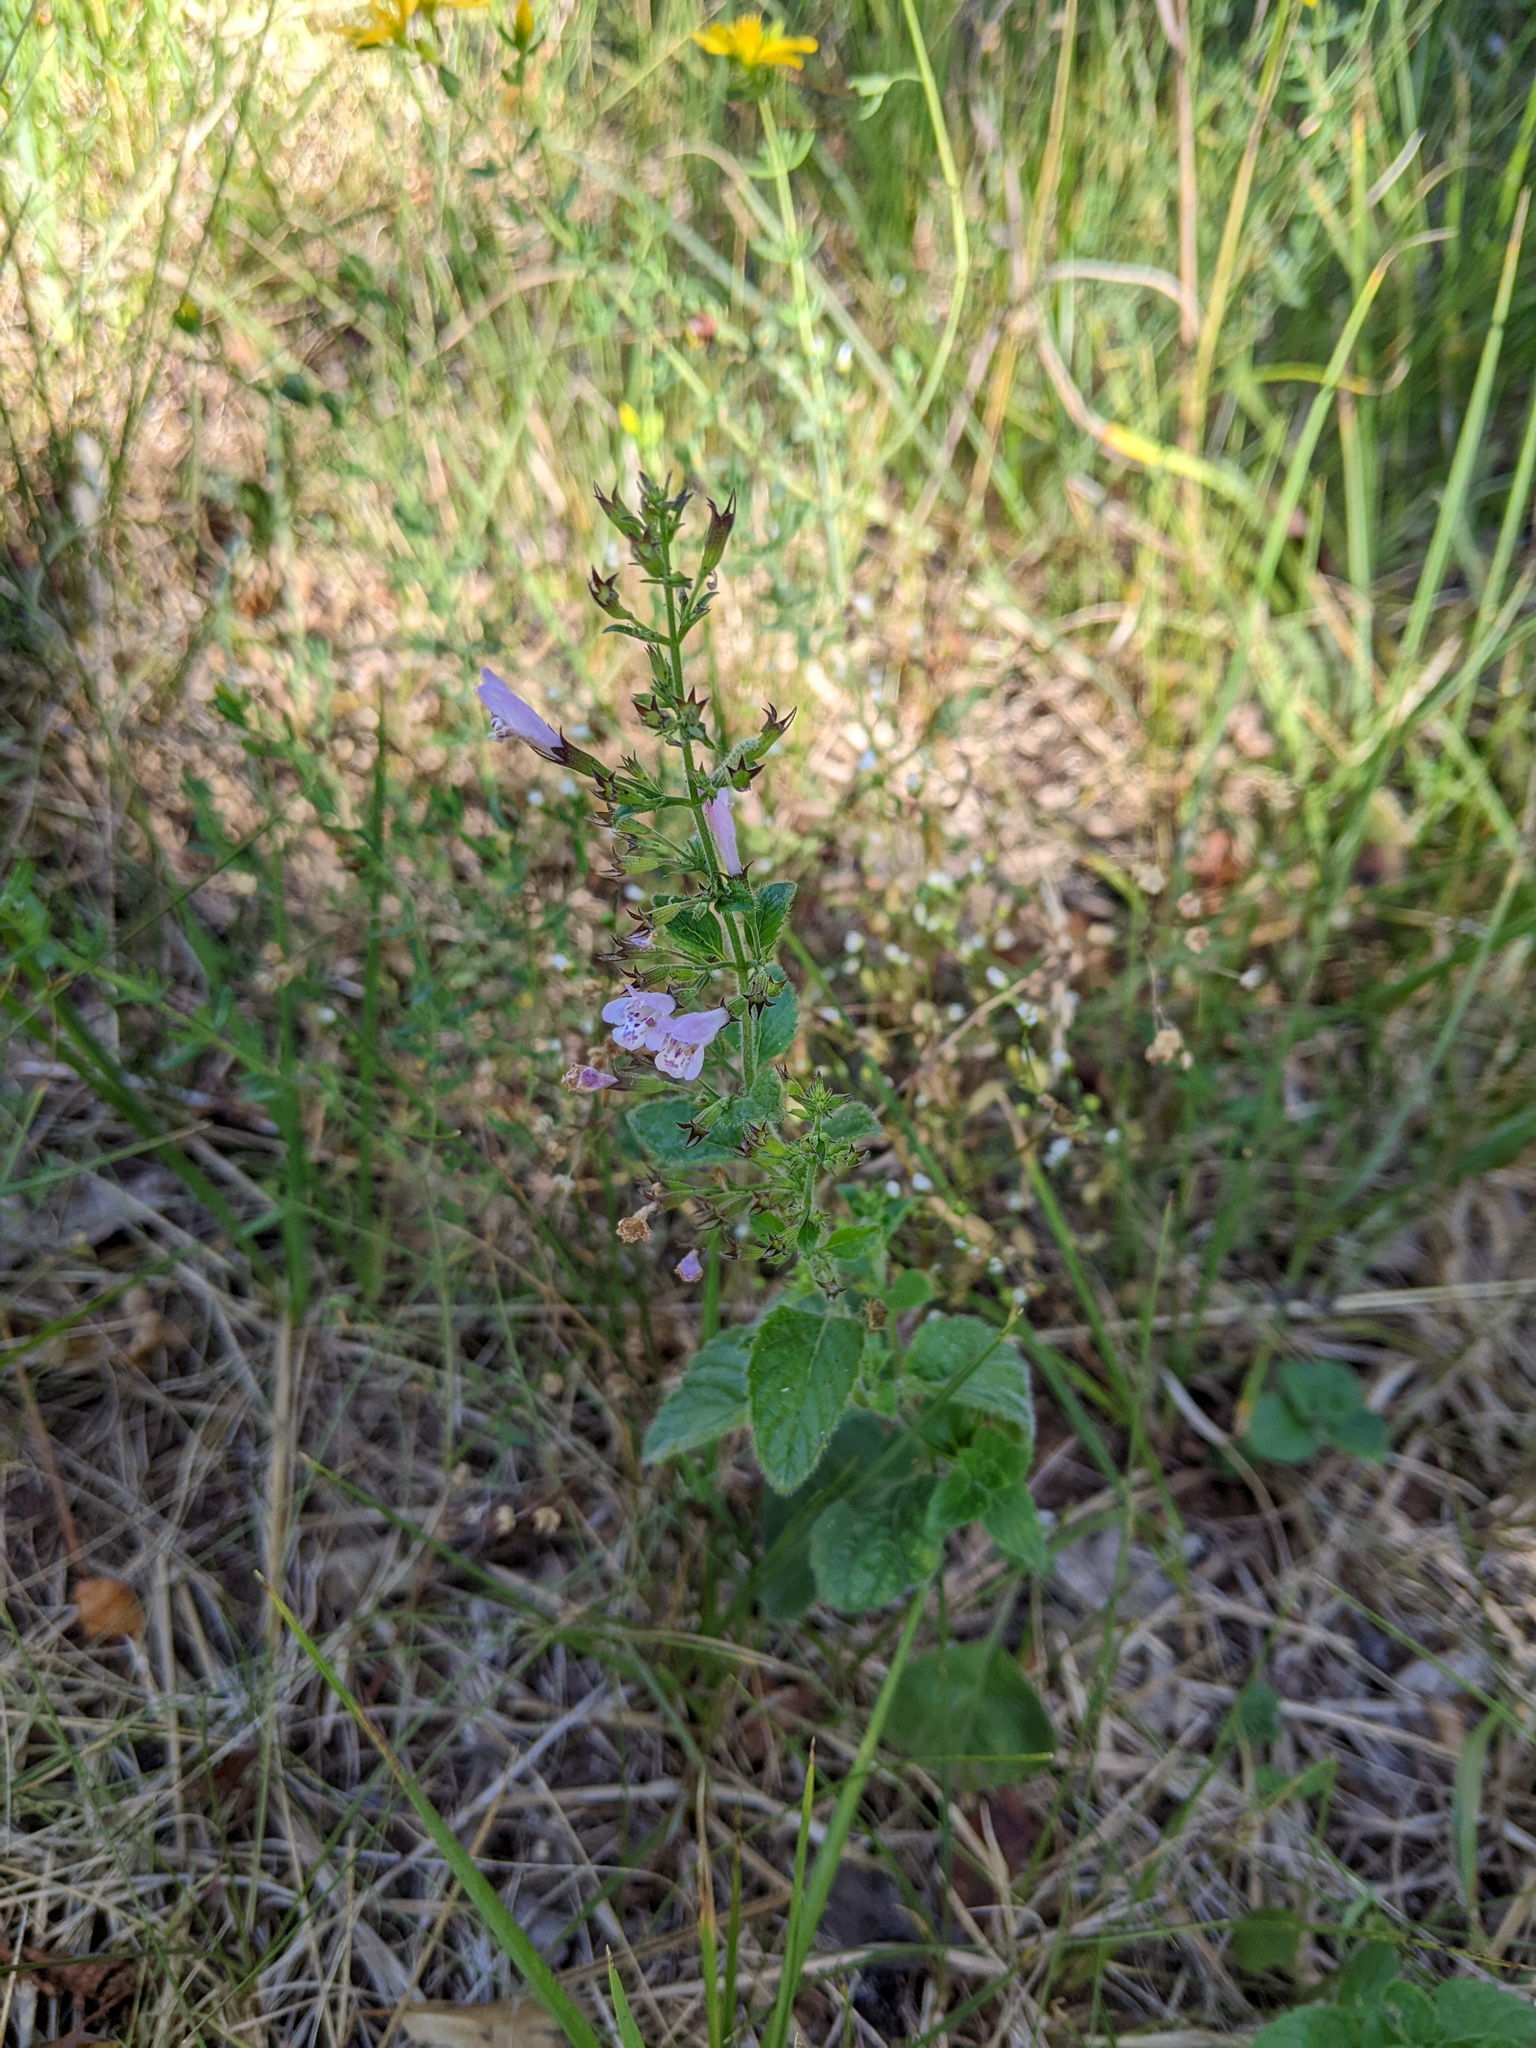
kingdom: Plantae
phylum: Tracheophyta
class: Magnoliopsida
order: Lamiales
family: Lamiaceae
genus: Clinopodium
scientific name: Clinopodium menthifolium
